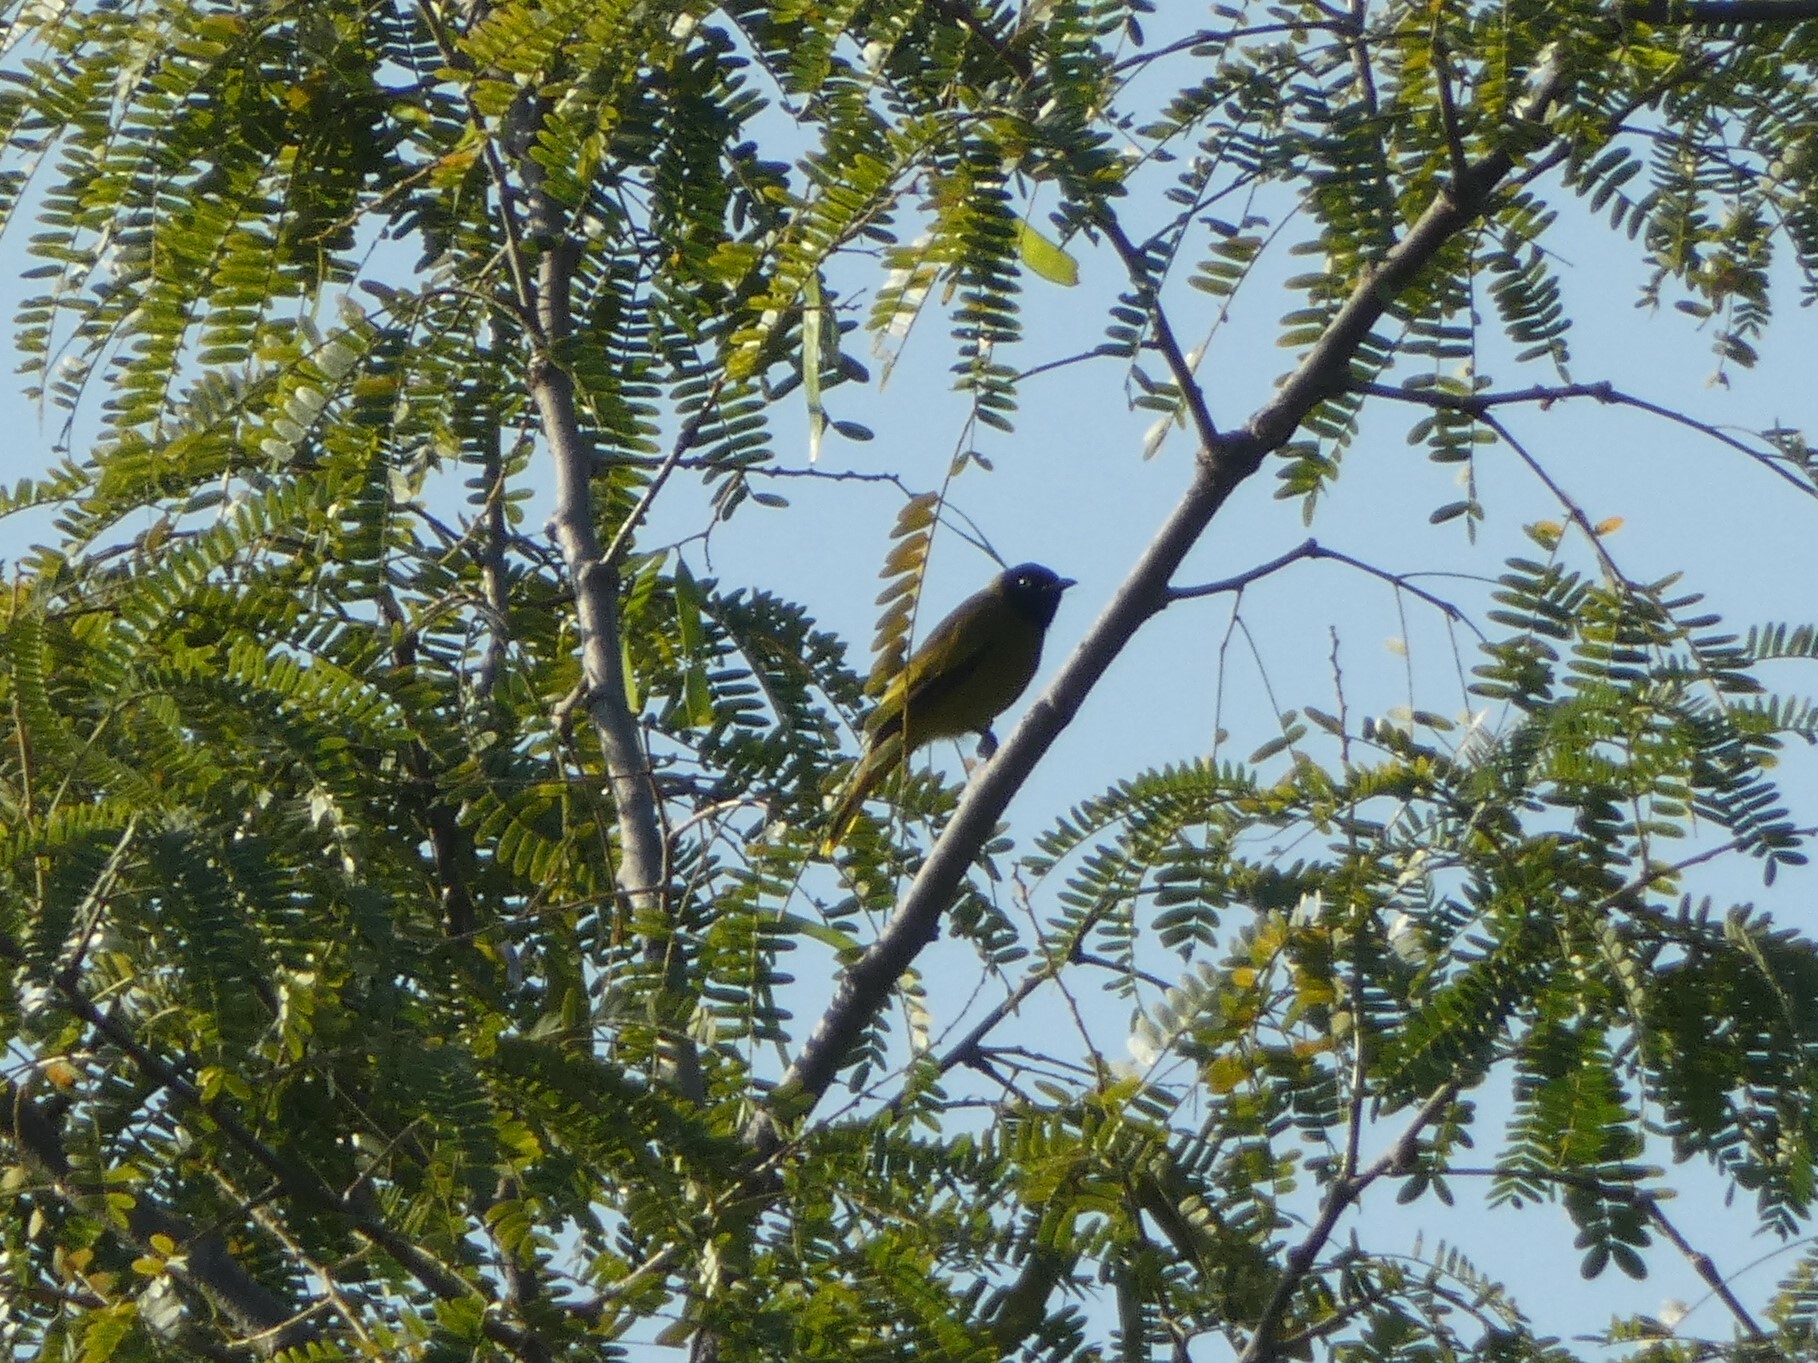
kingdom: Animalia
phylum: Chordata
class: Aves
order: Passeriformes
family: Pycnonotidae
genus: Microtarsus
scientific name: Microtarsus
